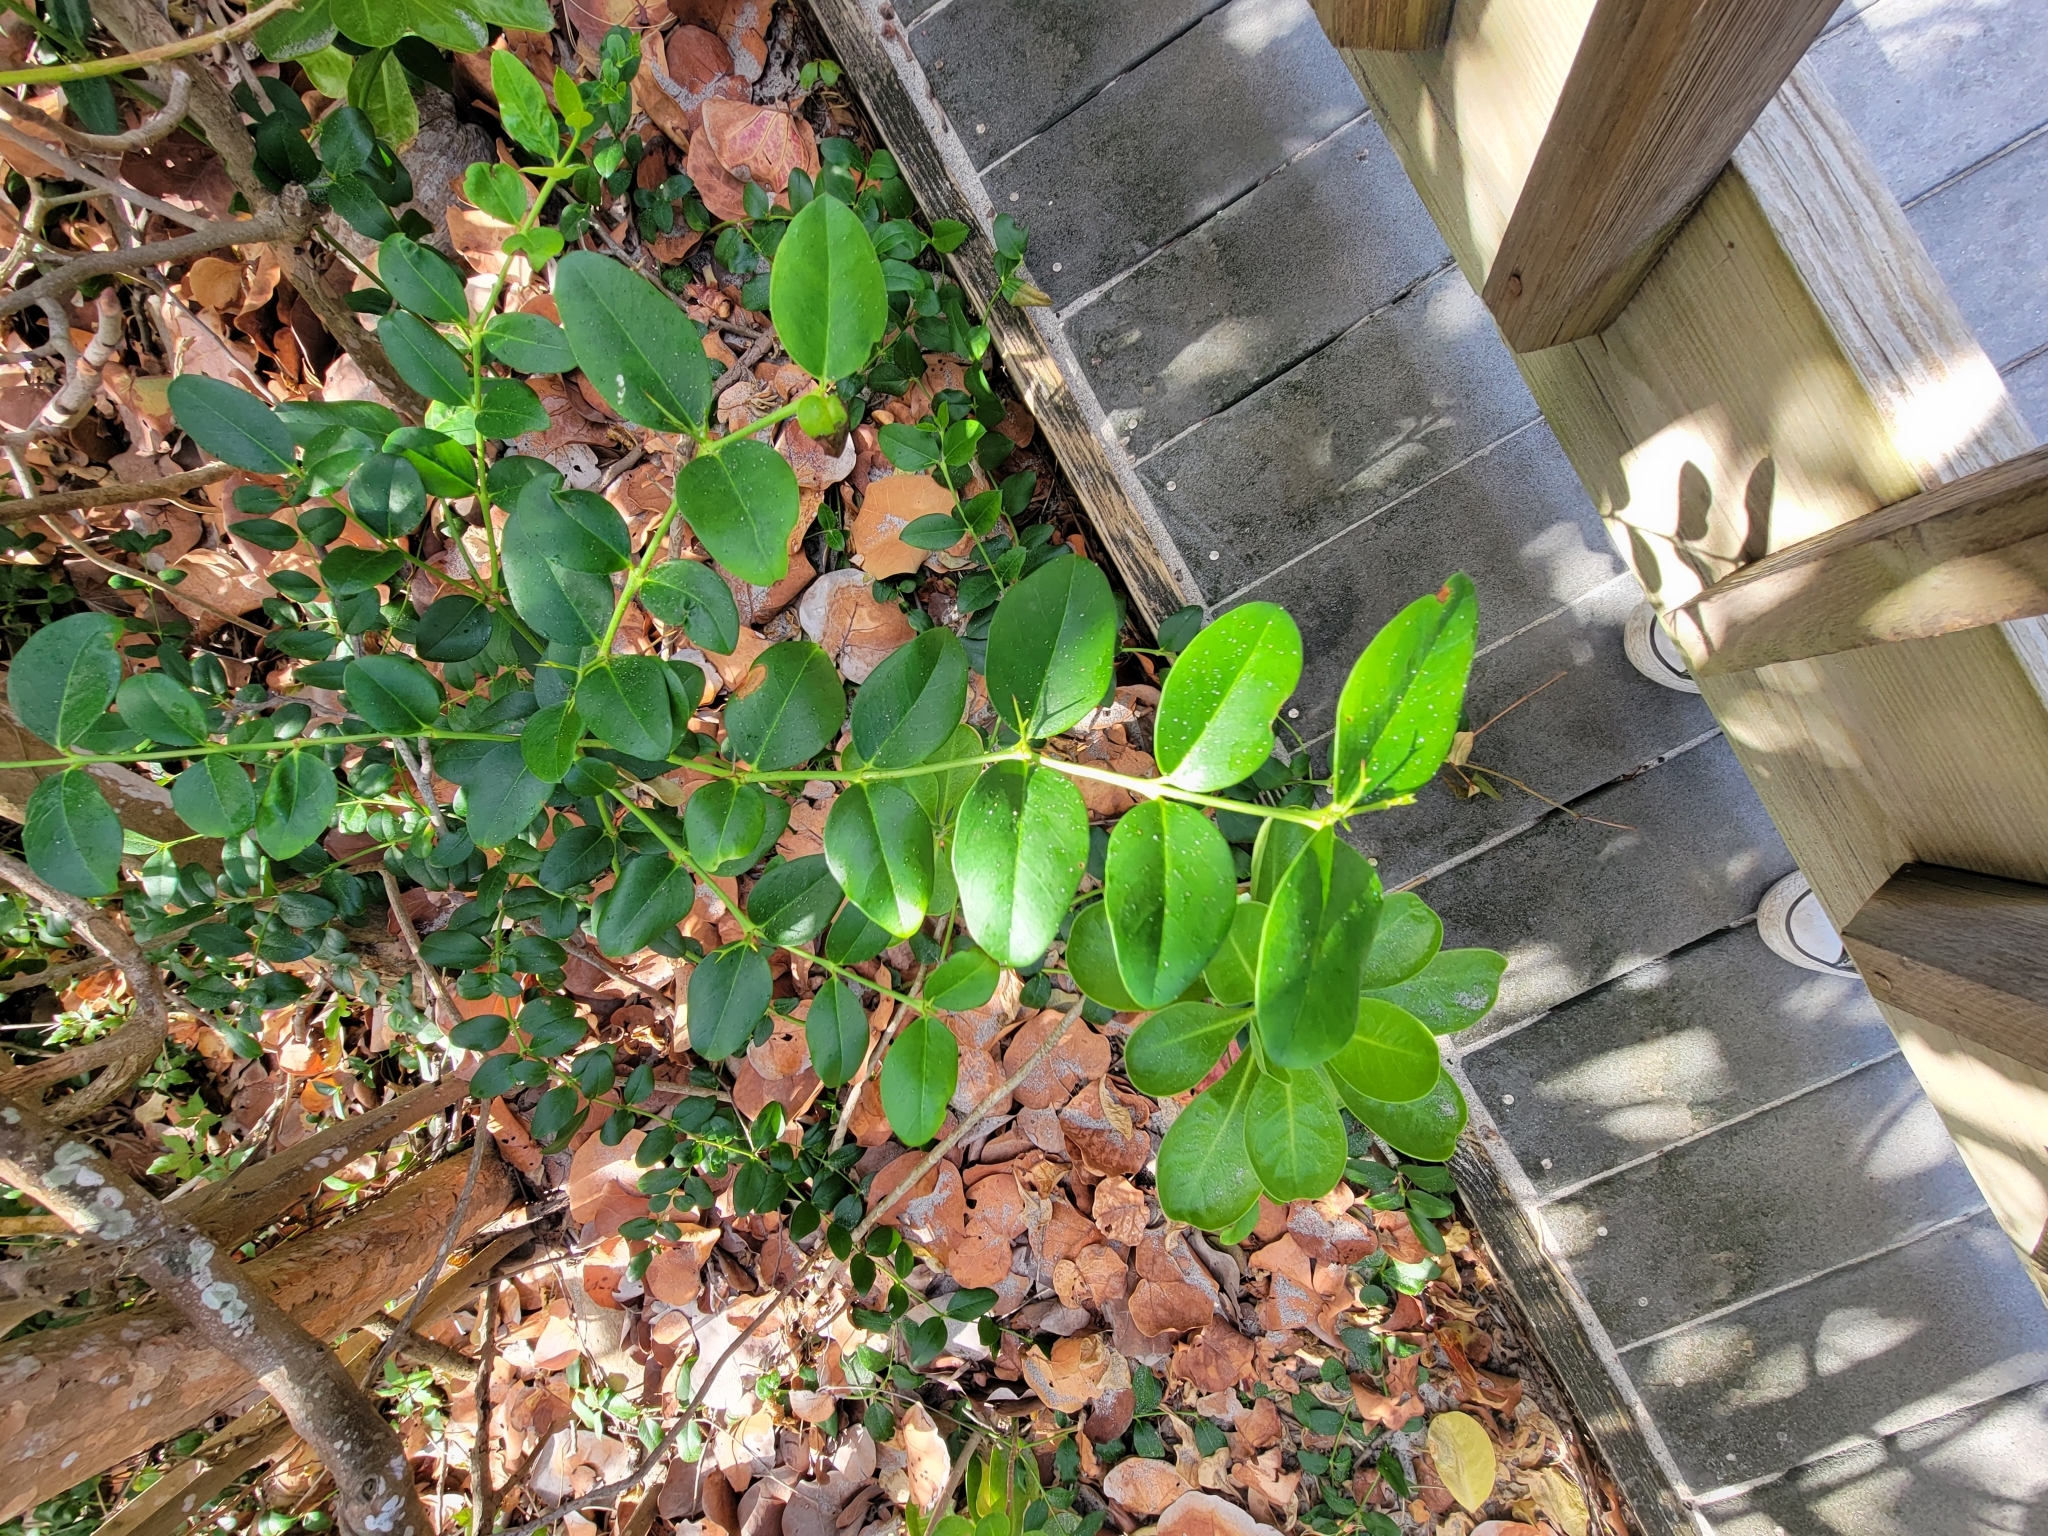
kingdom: Plantae
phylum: Tracheophyta
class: Magnoliopsida
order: Gentianales
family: Apocynaceae
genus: Carissa
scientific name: Carissa macrocarpa
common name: Natal plum
